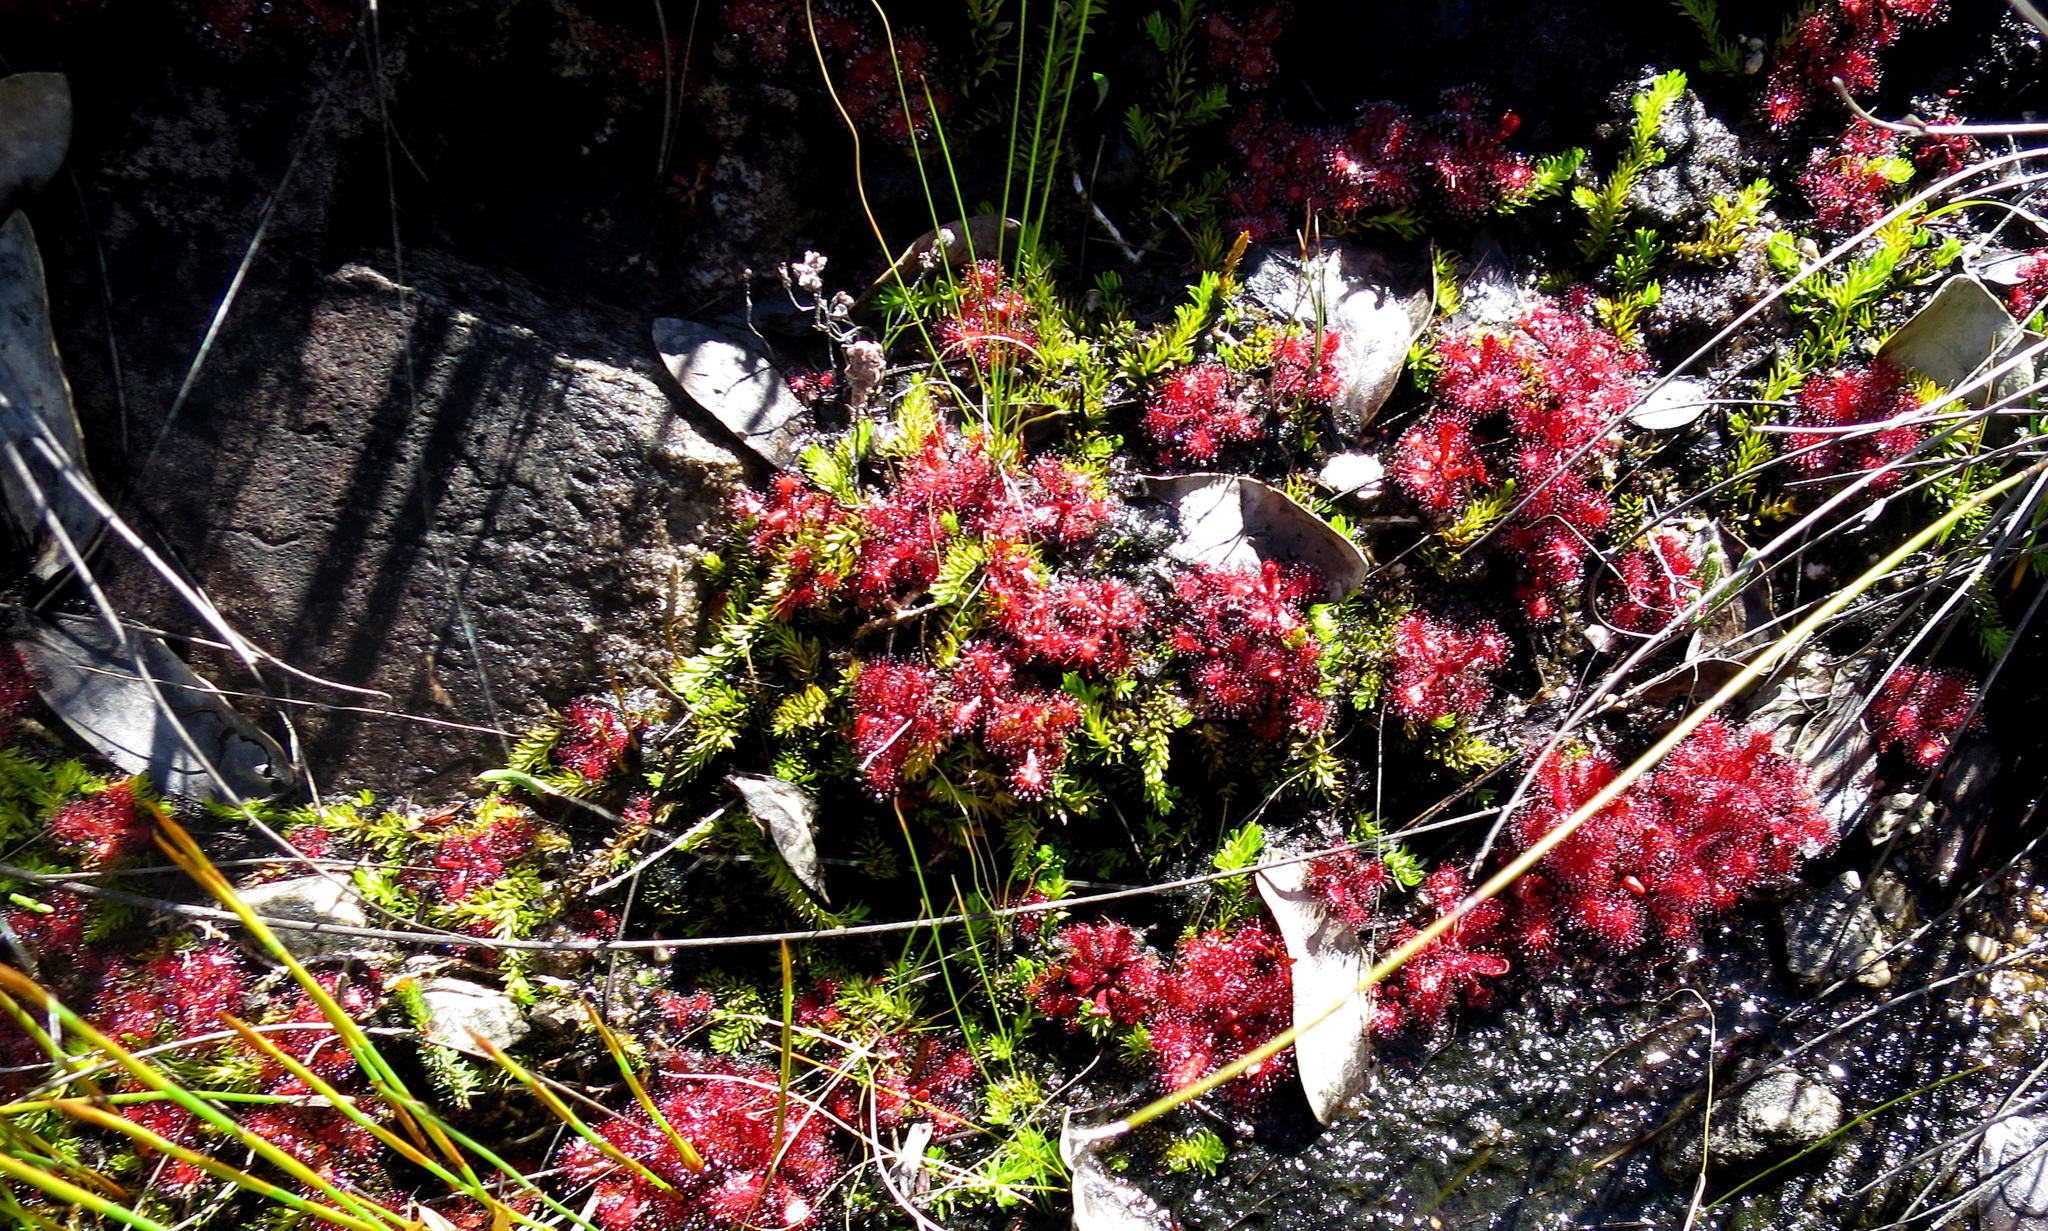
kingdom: Plantae
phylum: Tracheophyta
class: Lycopodiopsida
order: Lycopodiales
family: Lycopodiaceae
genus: Pseudolycopodiella
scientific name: Pseudolycopodiella caroliniana
